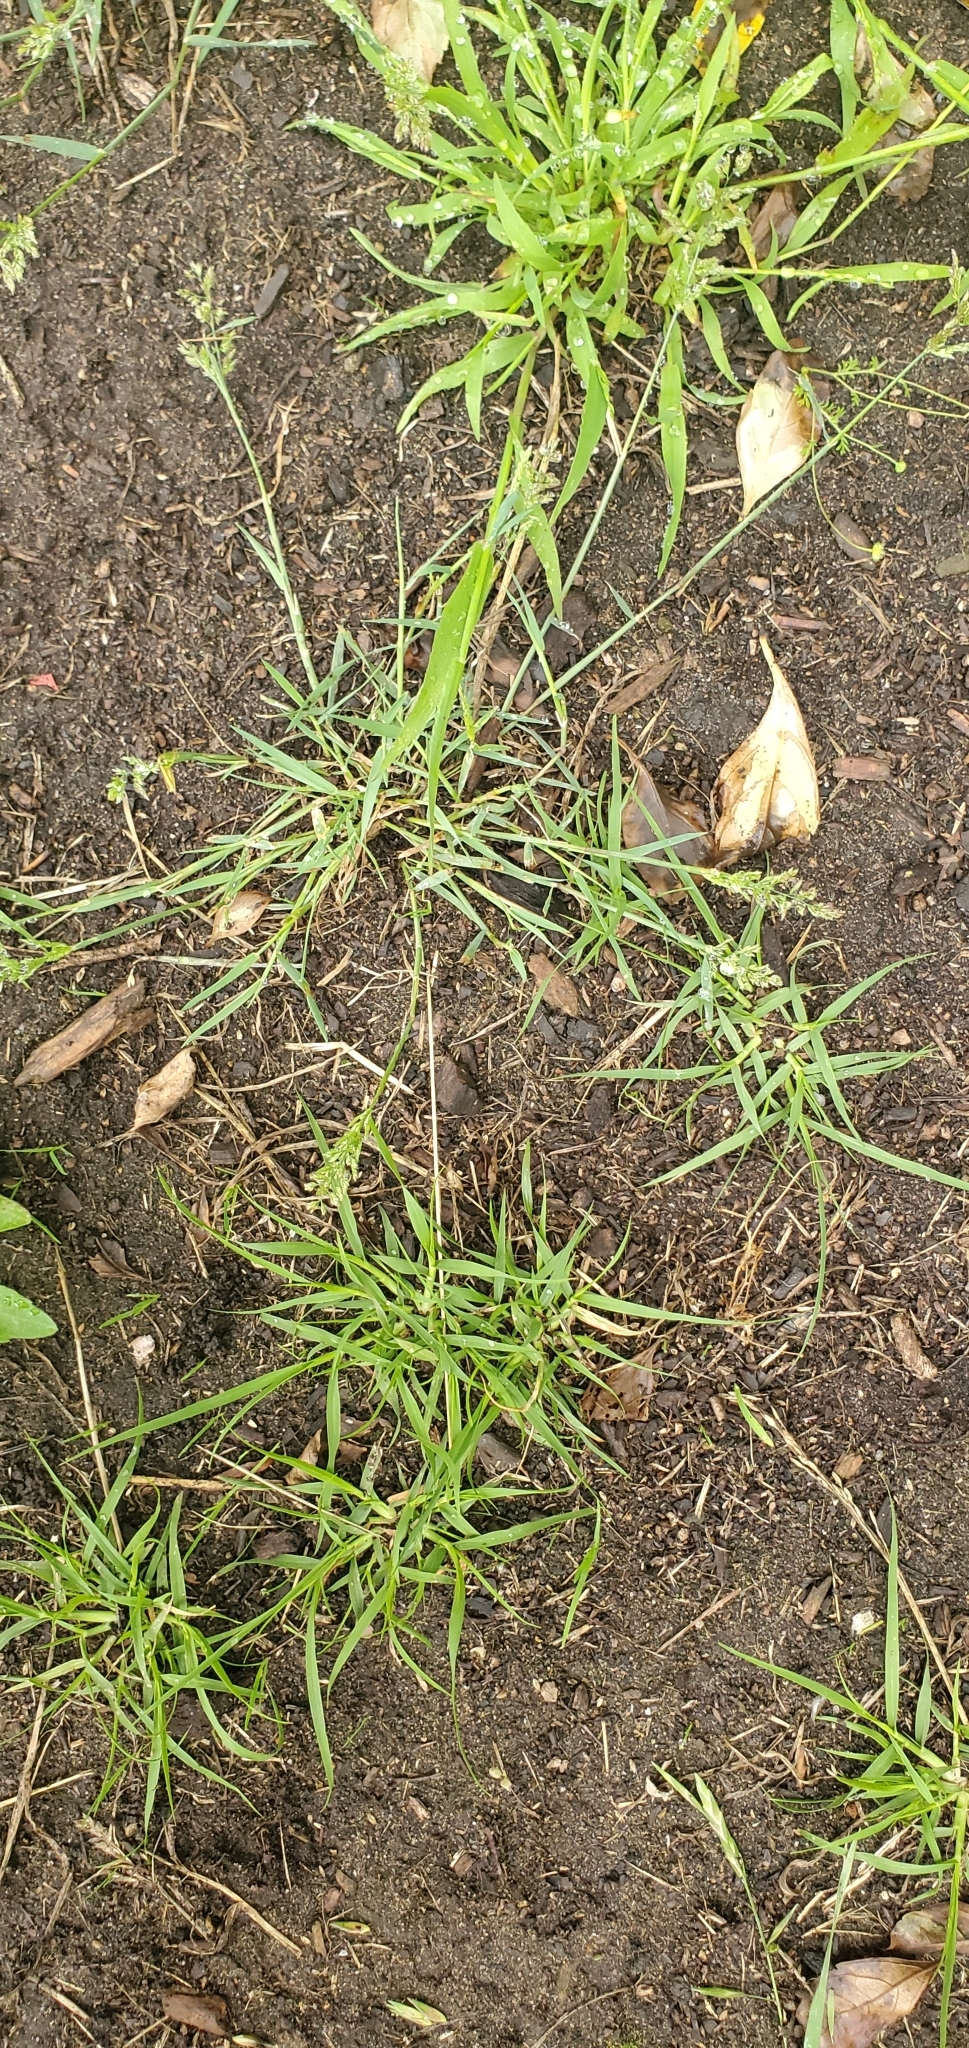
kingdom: Plantae
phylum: Tracheophyta
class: Liliopsida
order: Poales
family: Poaceae
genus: Polypogon
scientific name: Polypogon viridis
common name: Water bent
